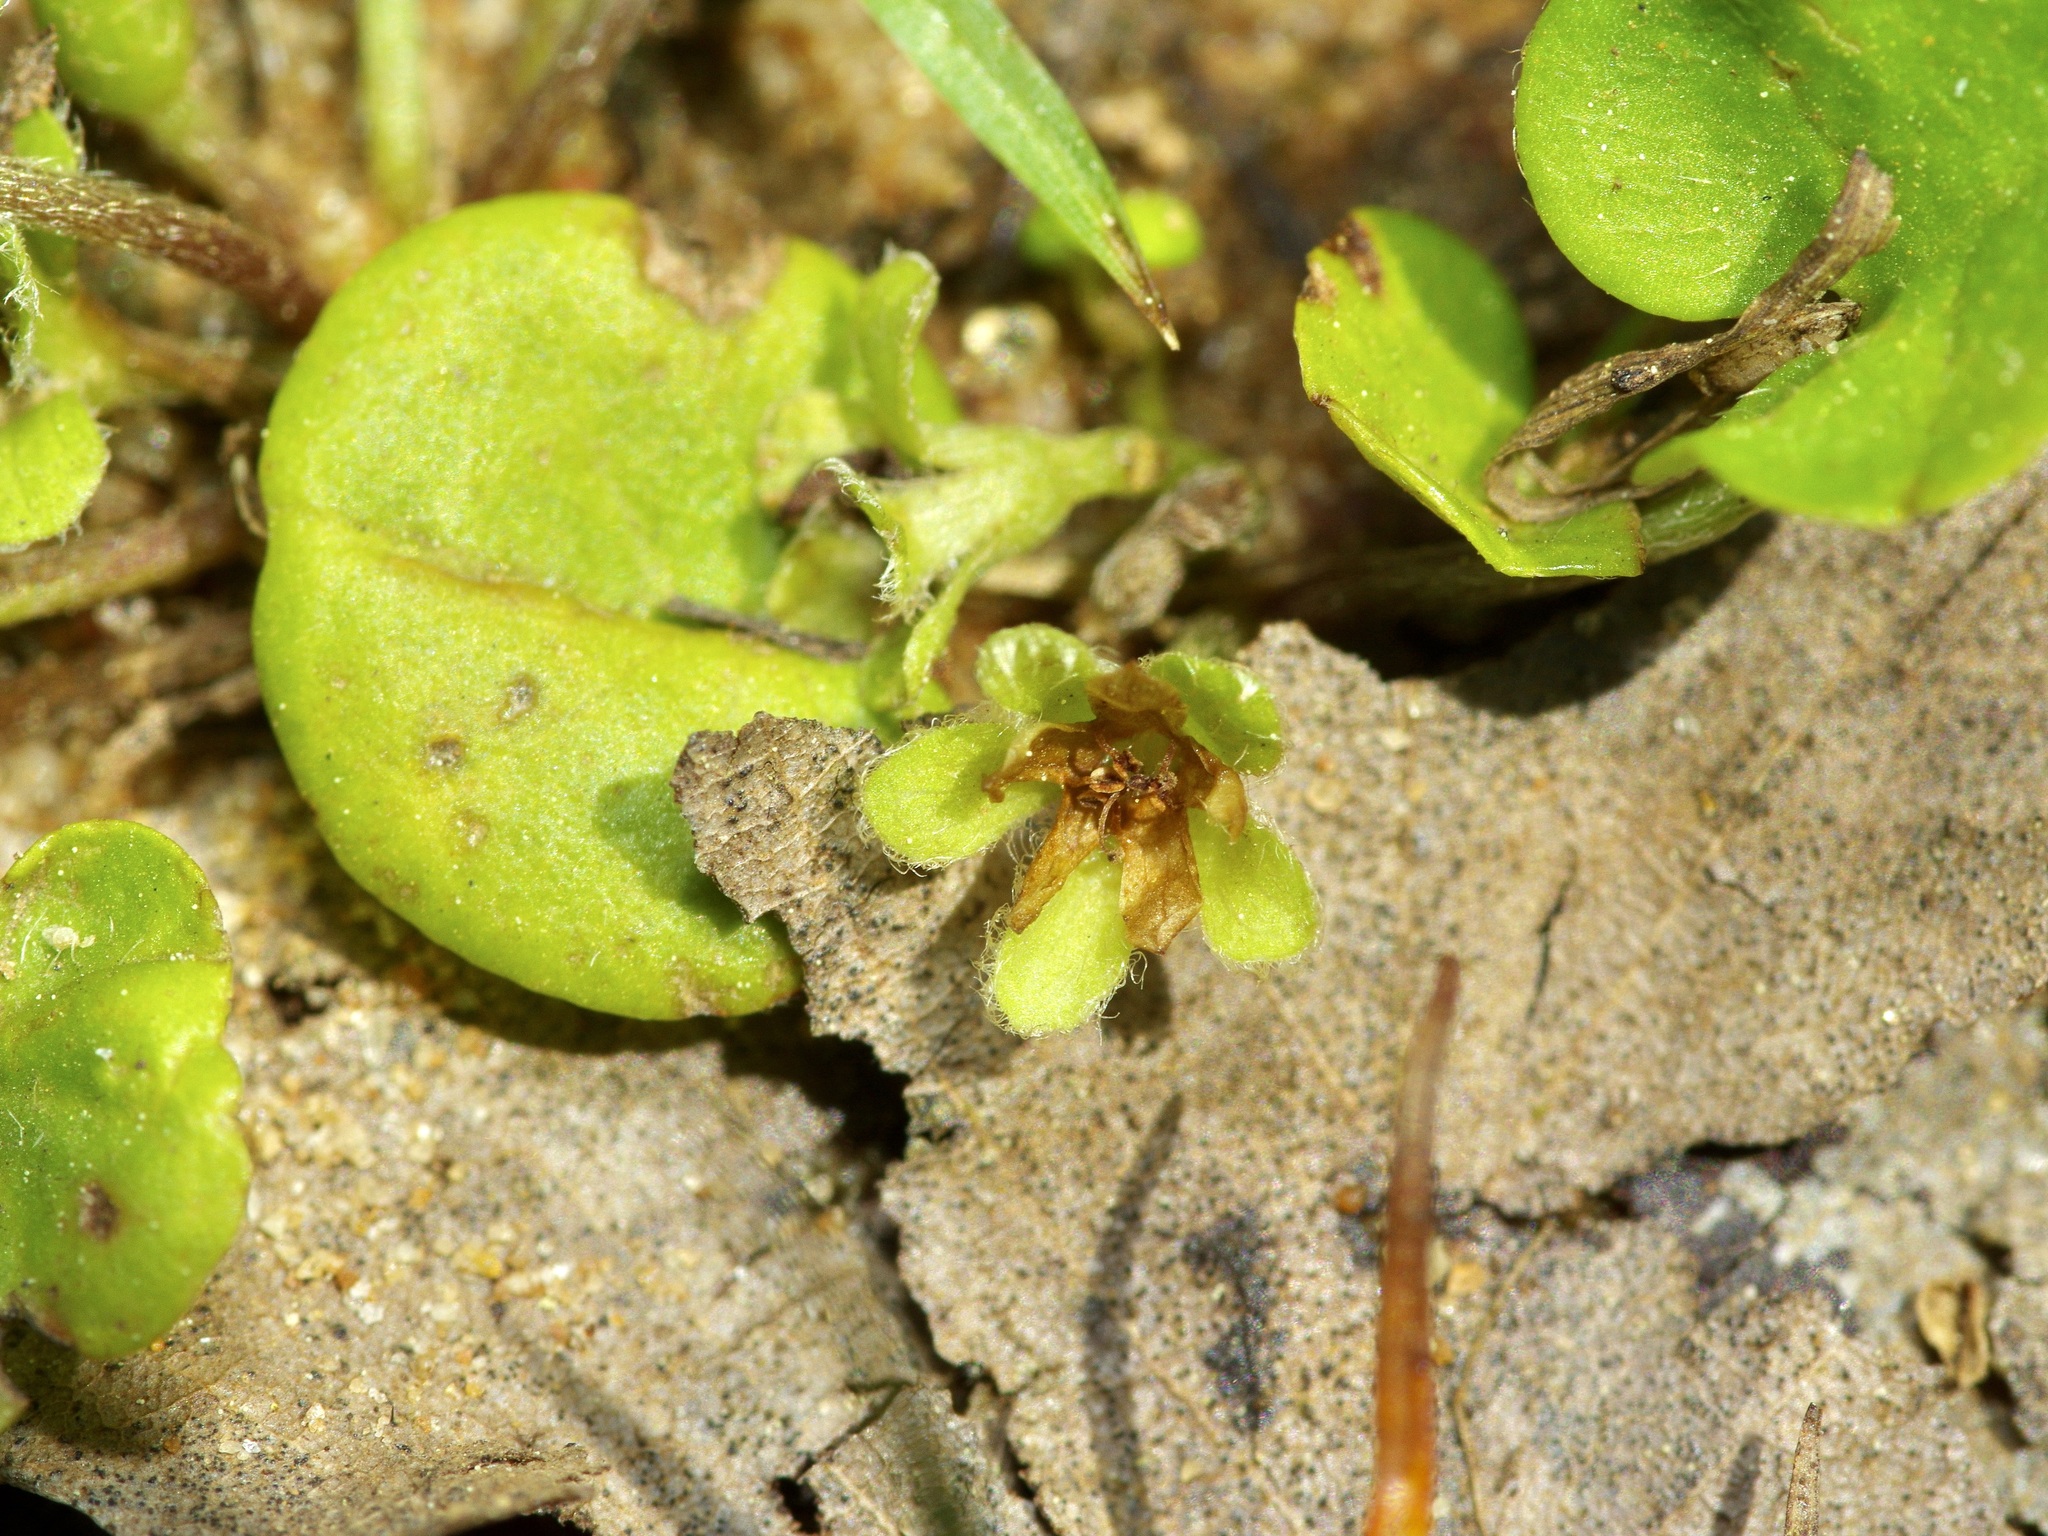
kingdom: Plantae
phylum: Tracheophyta
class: Magnoliopsida
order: Solanales
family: Convolvulaceae
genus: Dichondra
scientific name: Dichondra carolinensis
